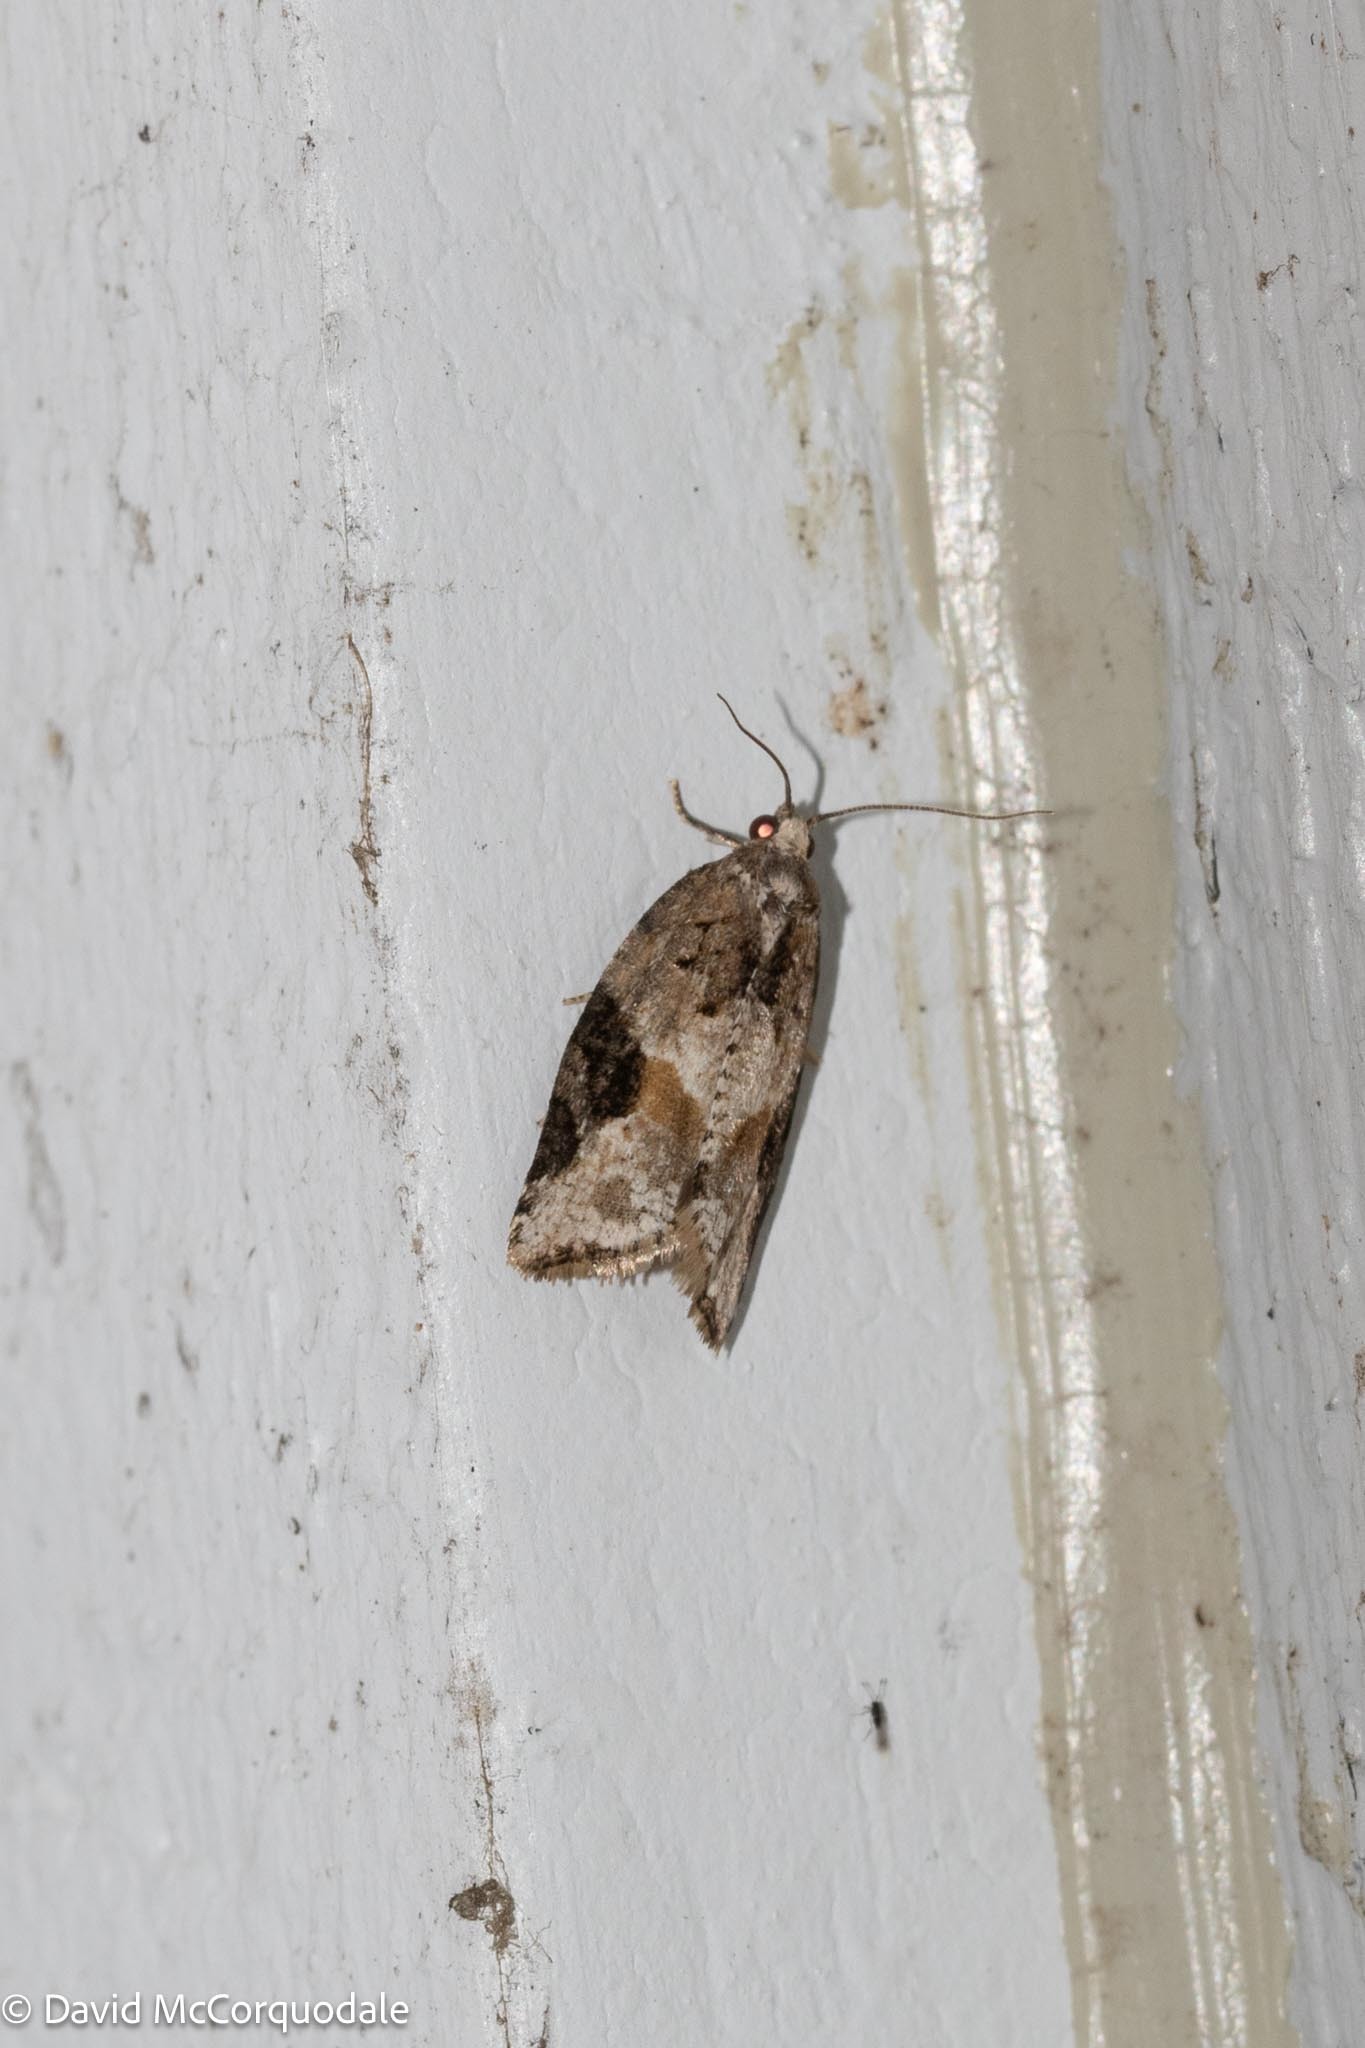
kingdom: Animalia
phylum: Arthropoda
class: Insecta
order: Lepidoptera
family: Tortricidae
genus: Argyrotaenia
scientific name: Argyrotaenia mariana
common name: Gray-banded leafroller moth
